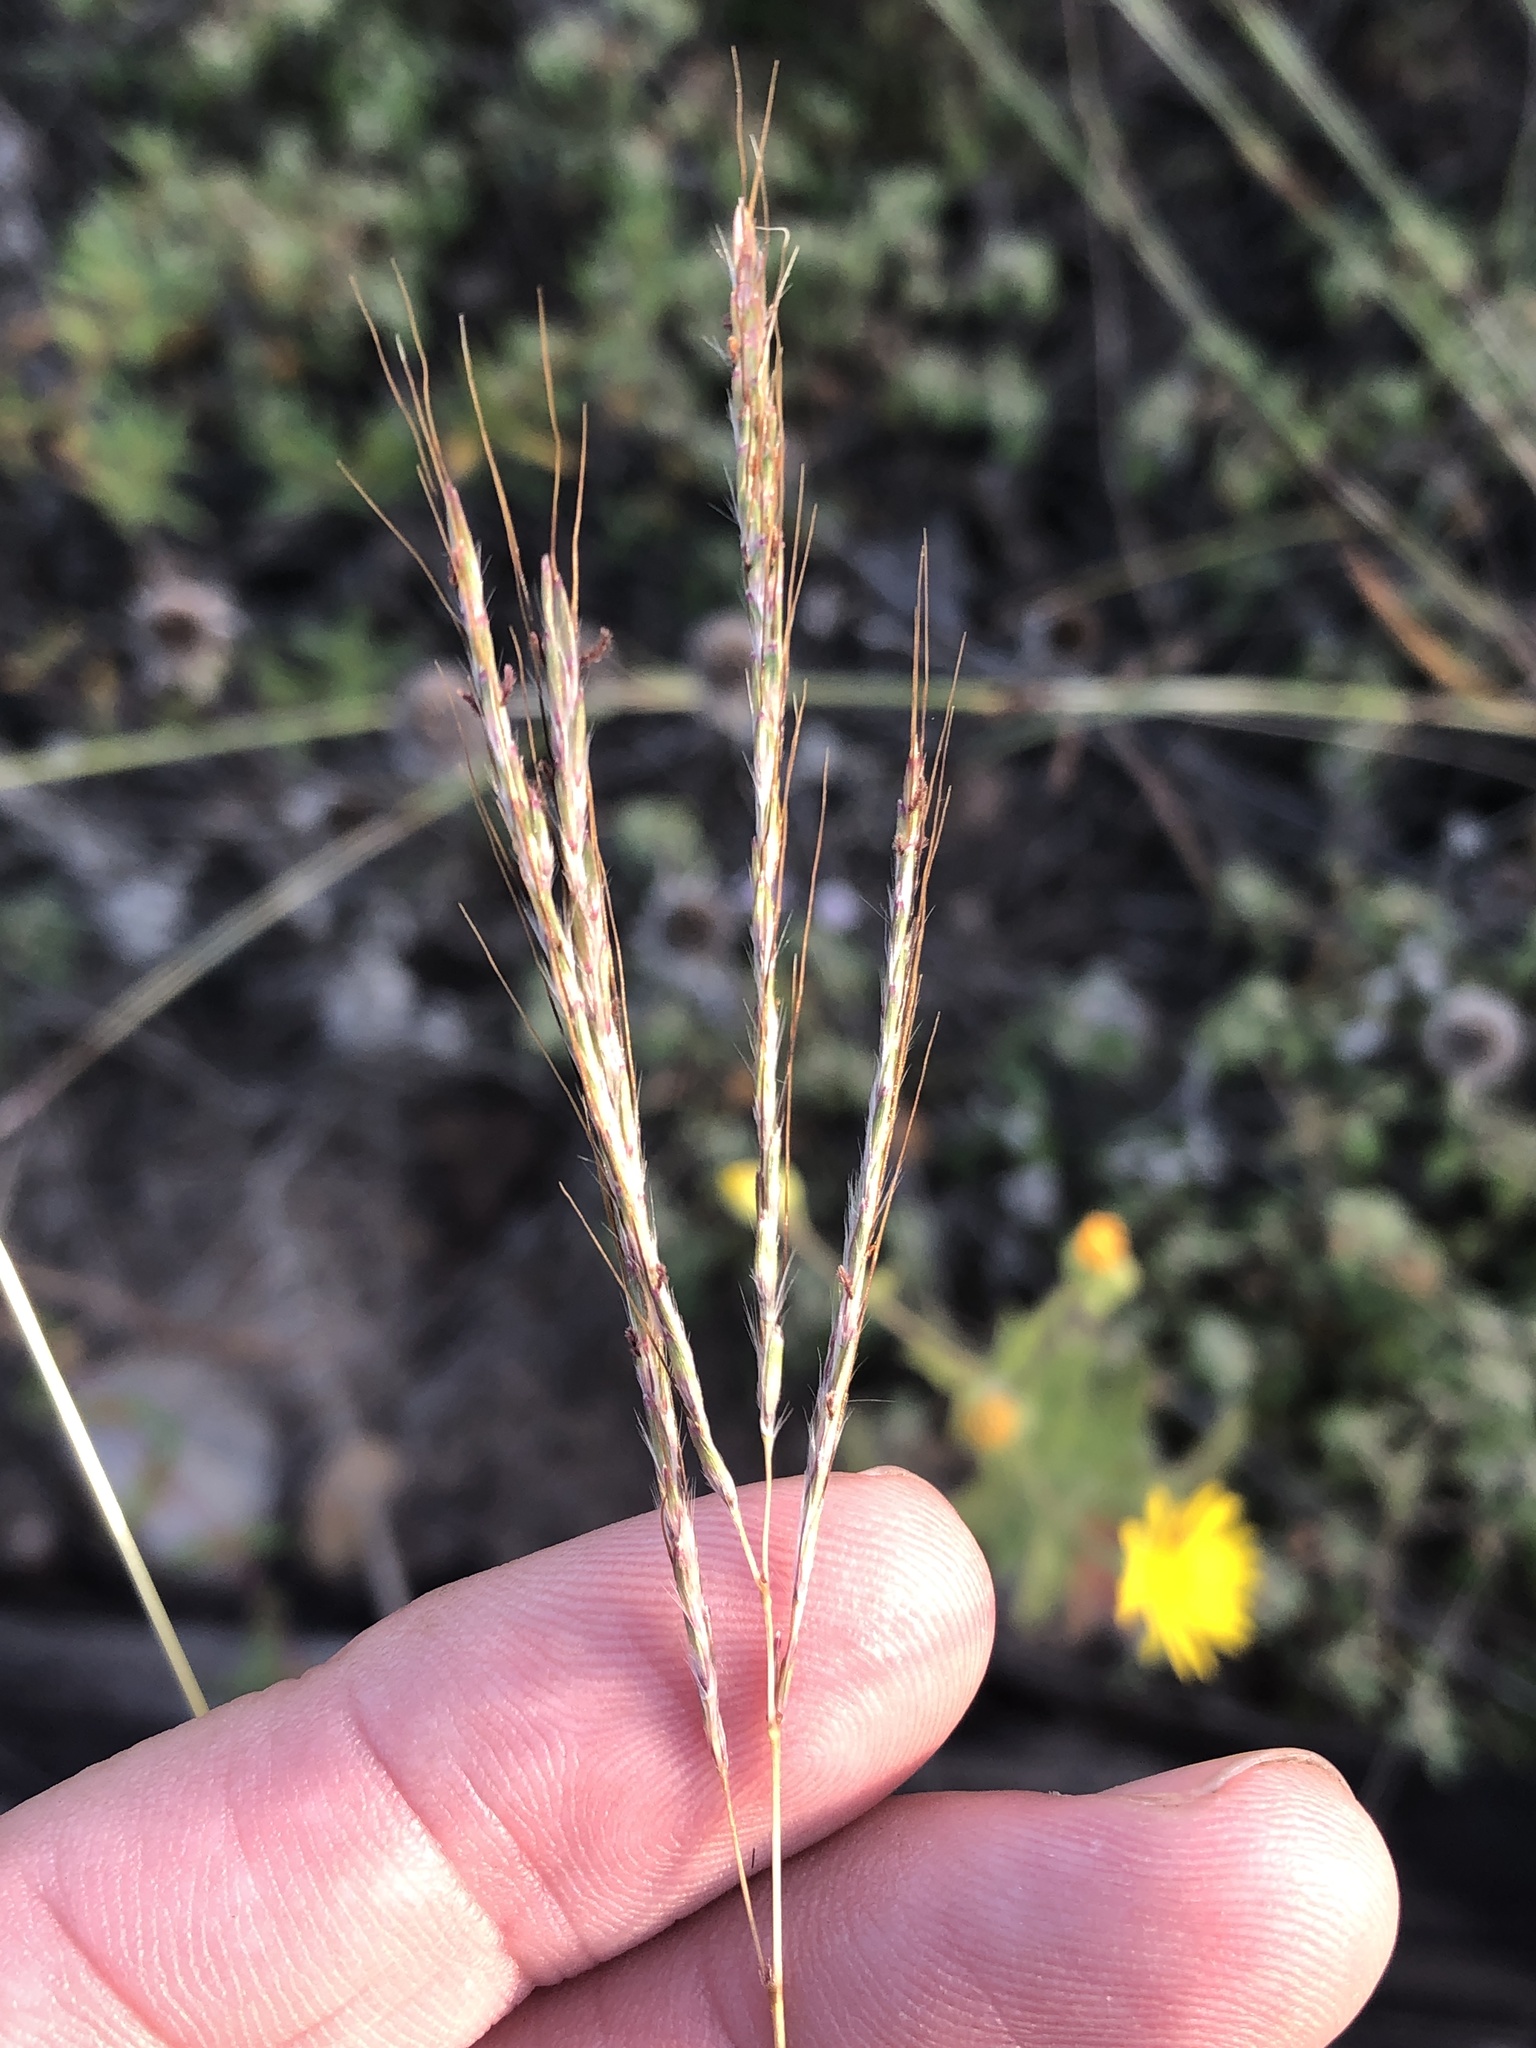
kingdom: Plantae
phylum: Tracheophyta
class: Liliopsida
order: Poales
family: Poaceae
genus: Bothriochloa
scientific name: Bothriochloa ischaemum
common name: Yellow bluestem
